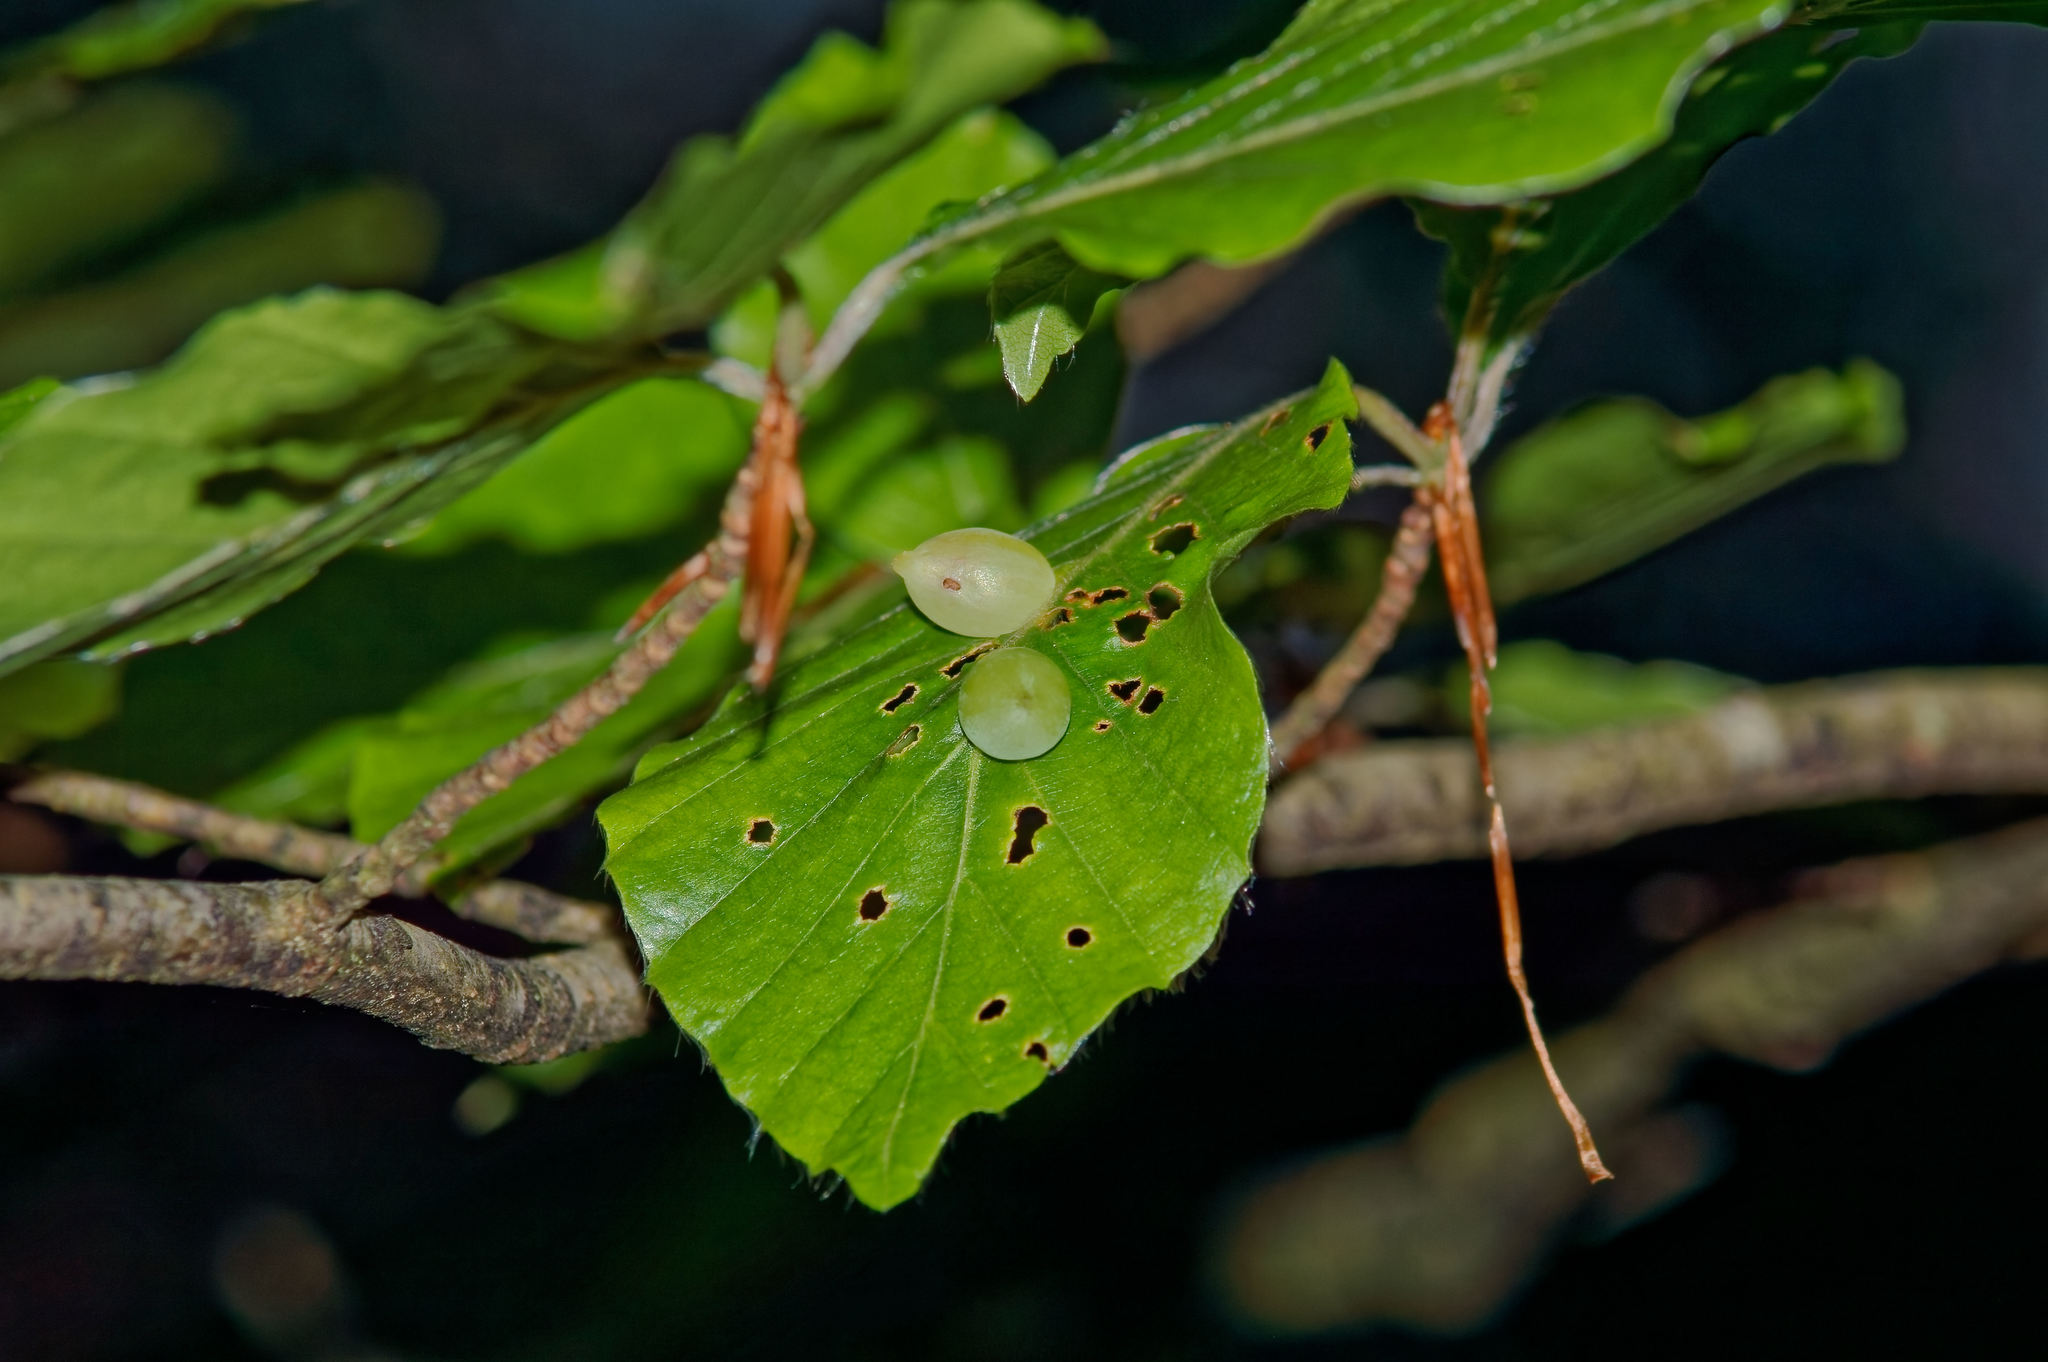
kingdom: Animalia
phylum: Arthropoda
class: Insecta
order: Diptera
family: Cecidomyiidae
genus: Mikiola
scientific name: Mikiola fagi
